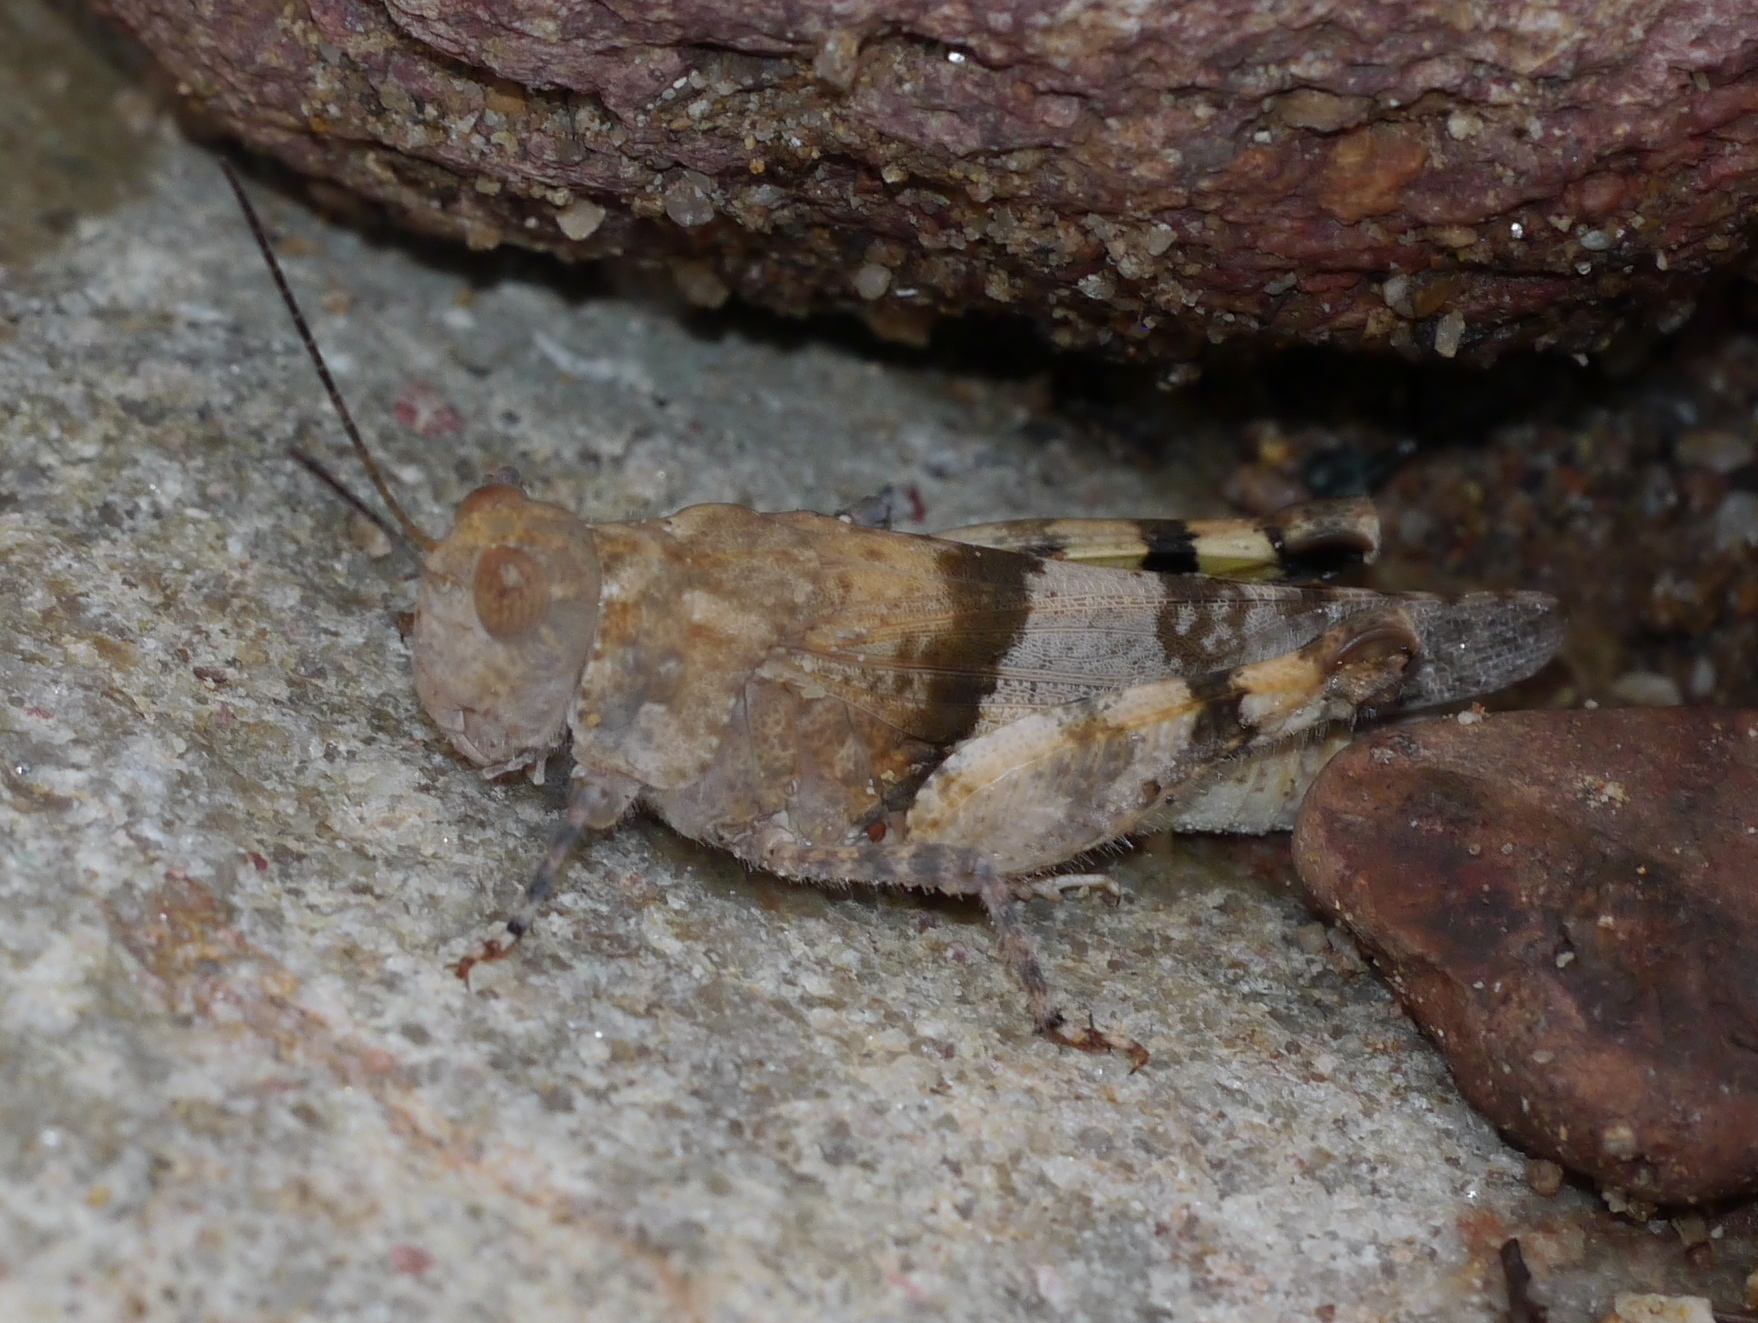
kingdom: Animalia
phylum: Arthropoda
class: Insecta
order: Orthoptera
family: Acrididae
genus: Heliastus
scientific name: Heliastus benjamini
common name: Arroyo grasshopper
